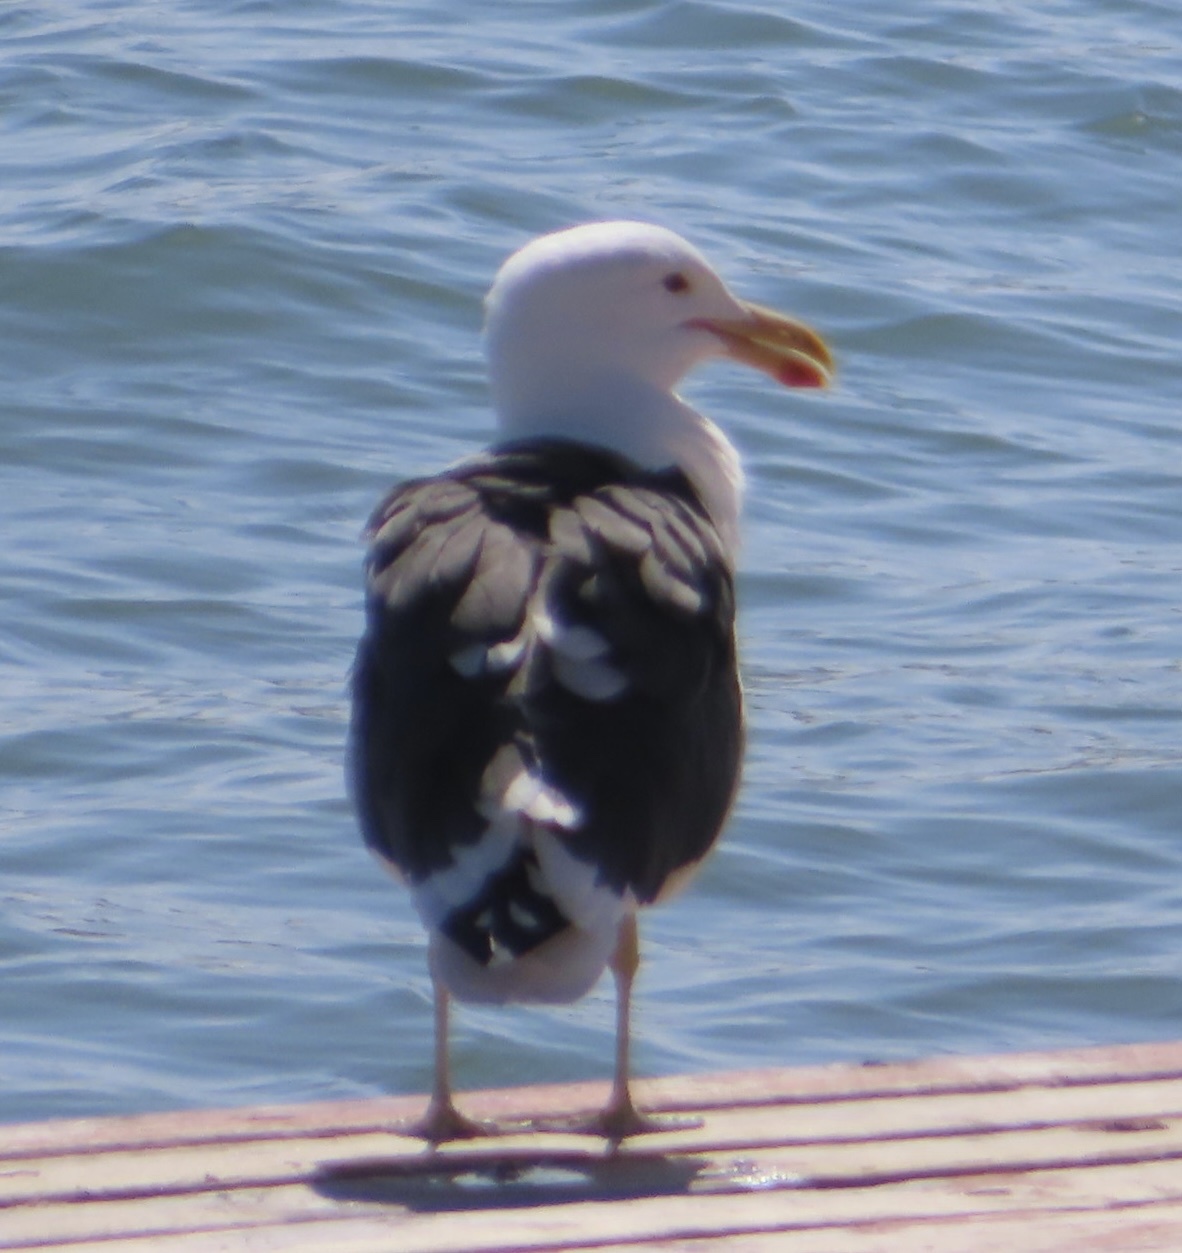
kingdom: Animalia
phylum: Chordata
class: Aves
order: Charadriiformes
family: Laridae
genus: Larus
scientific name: Larus dominicanus
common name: Kelp gull
